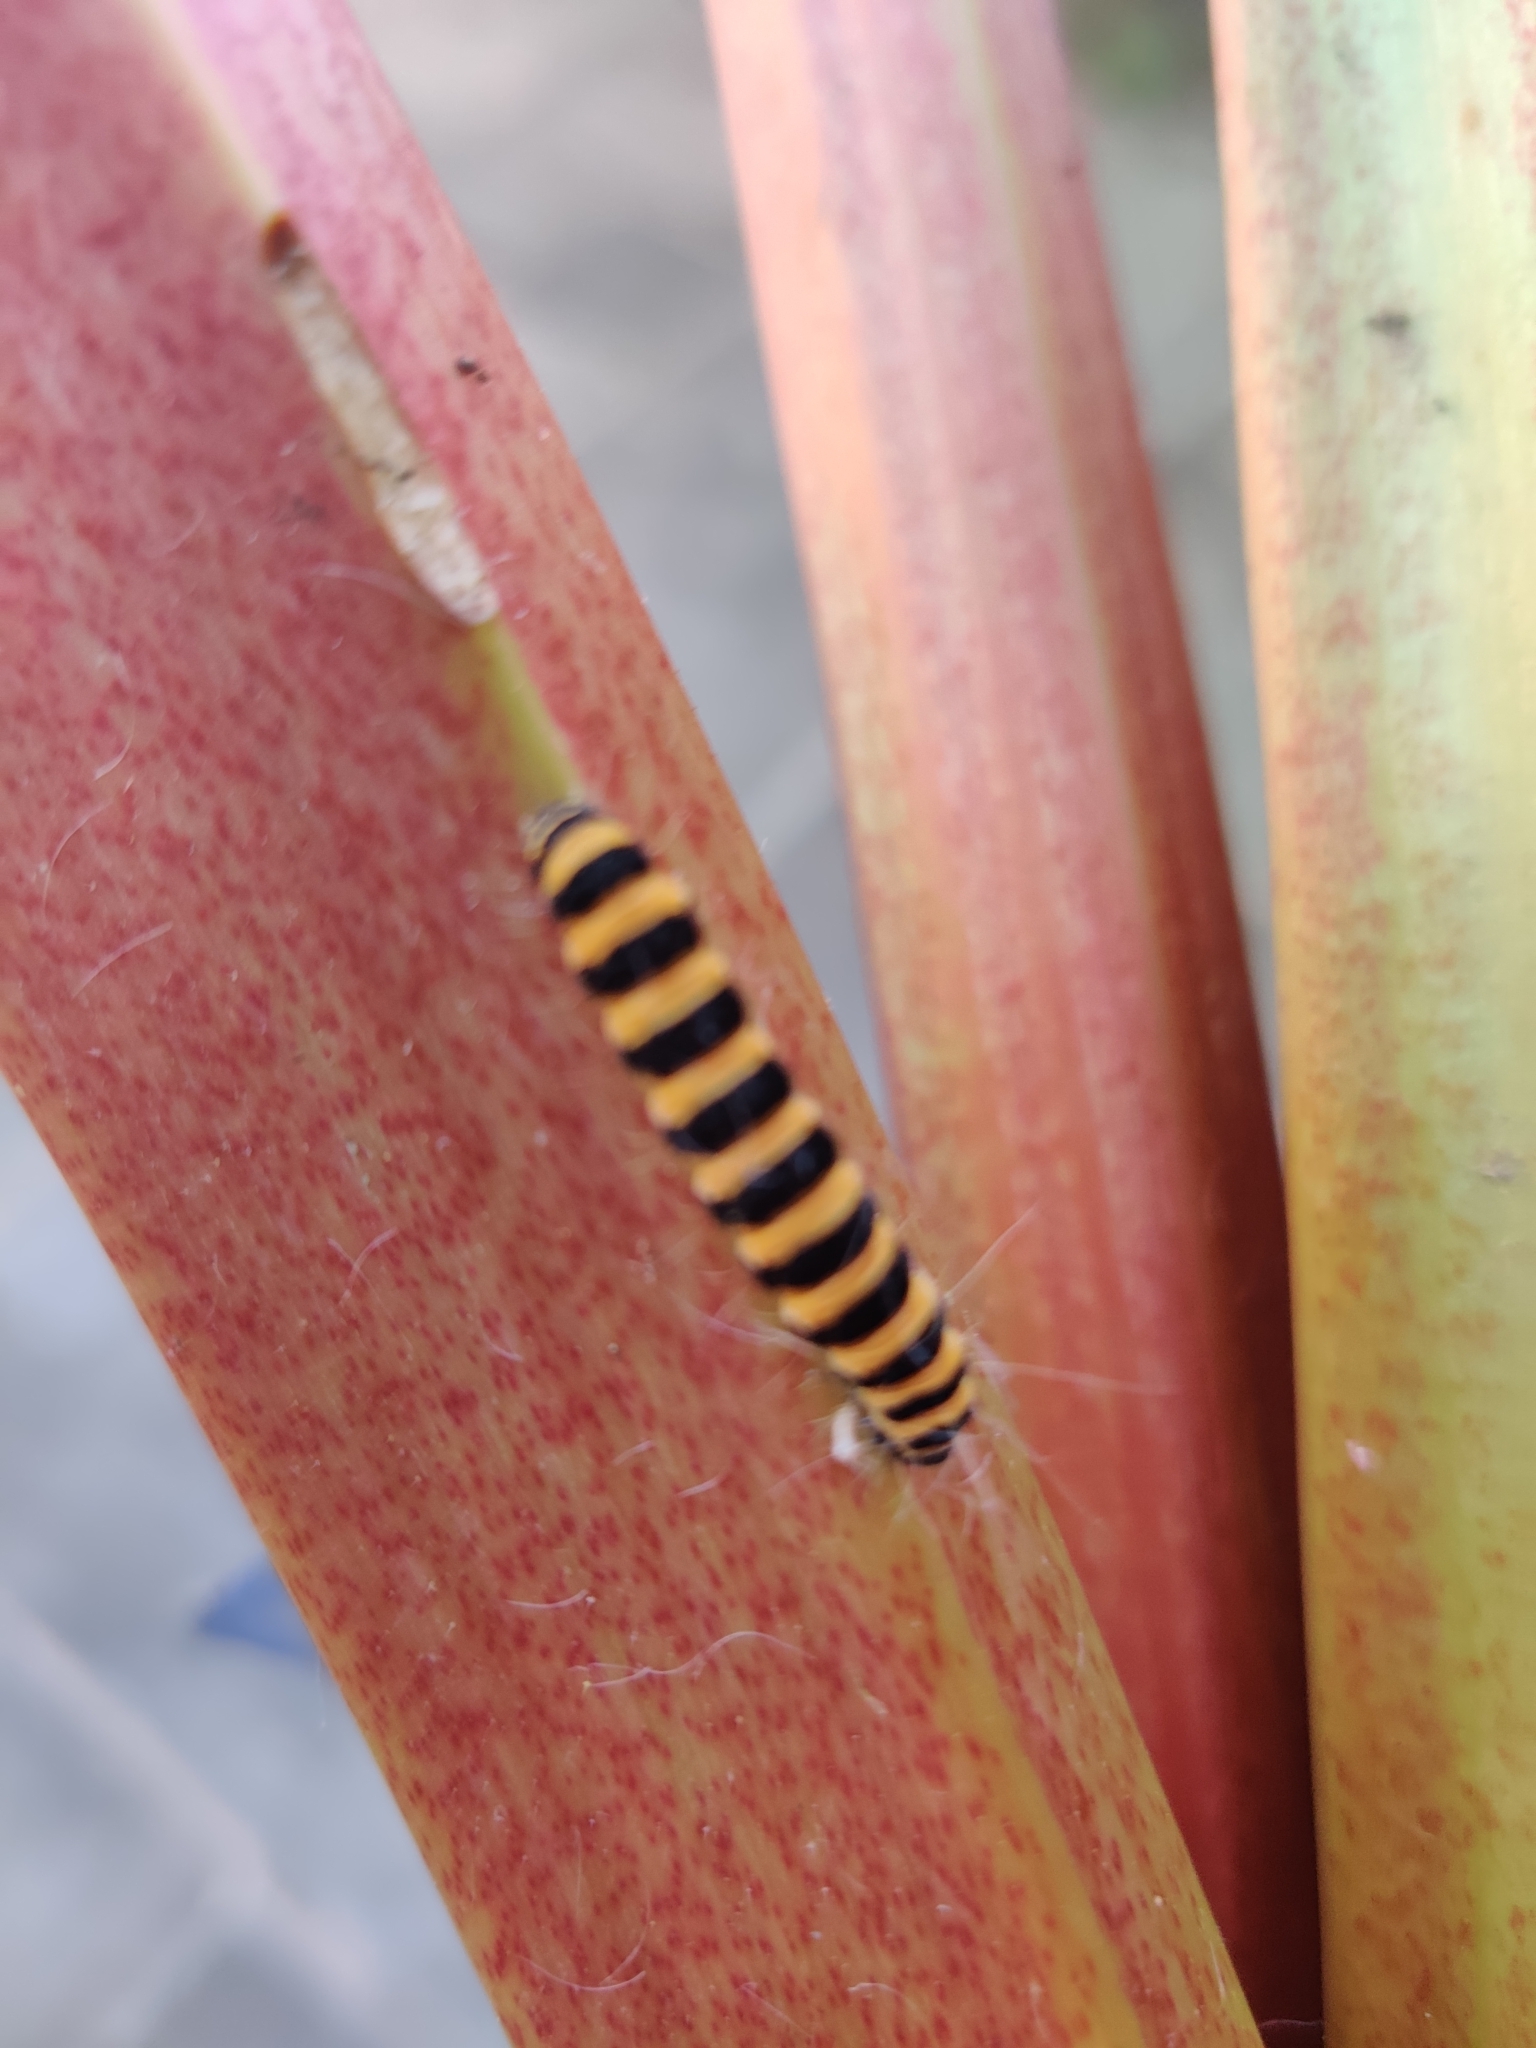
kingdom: Animalia
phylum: Arthropoda
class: Insecta
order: Lepidoptera
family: Erebidae
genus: Tyria
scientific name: Tyria jacobaeae
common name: Cinnabar
